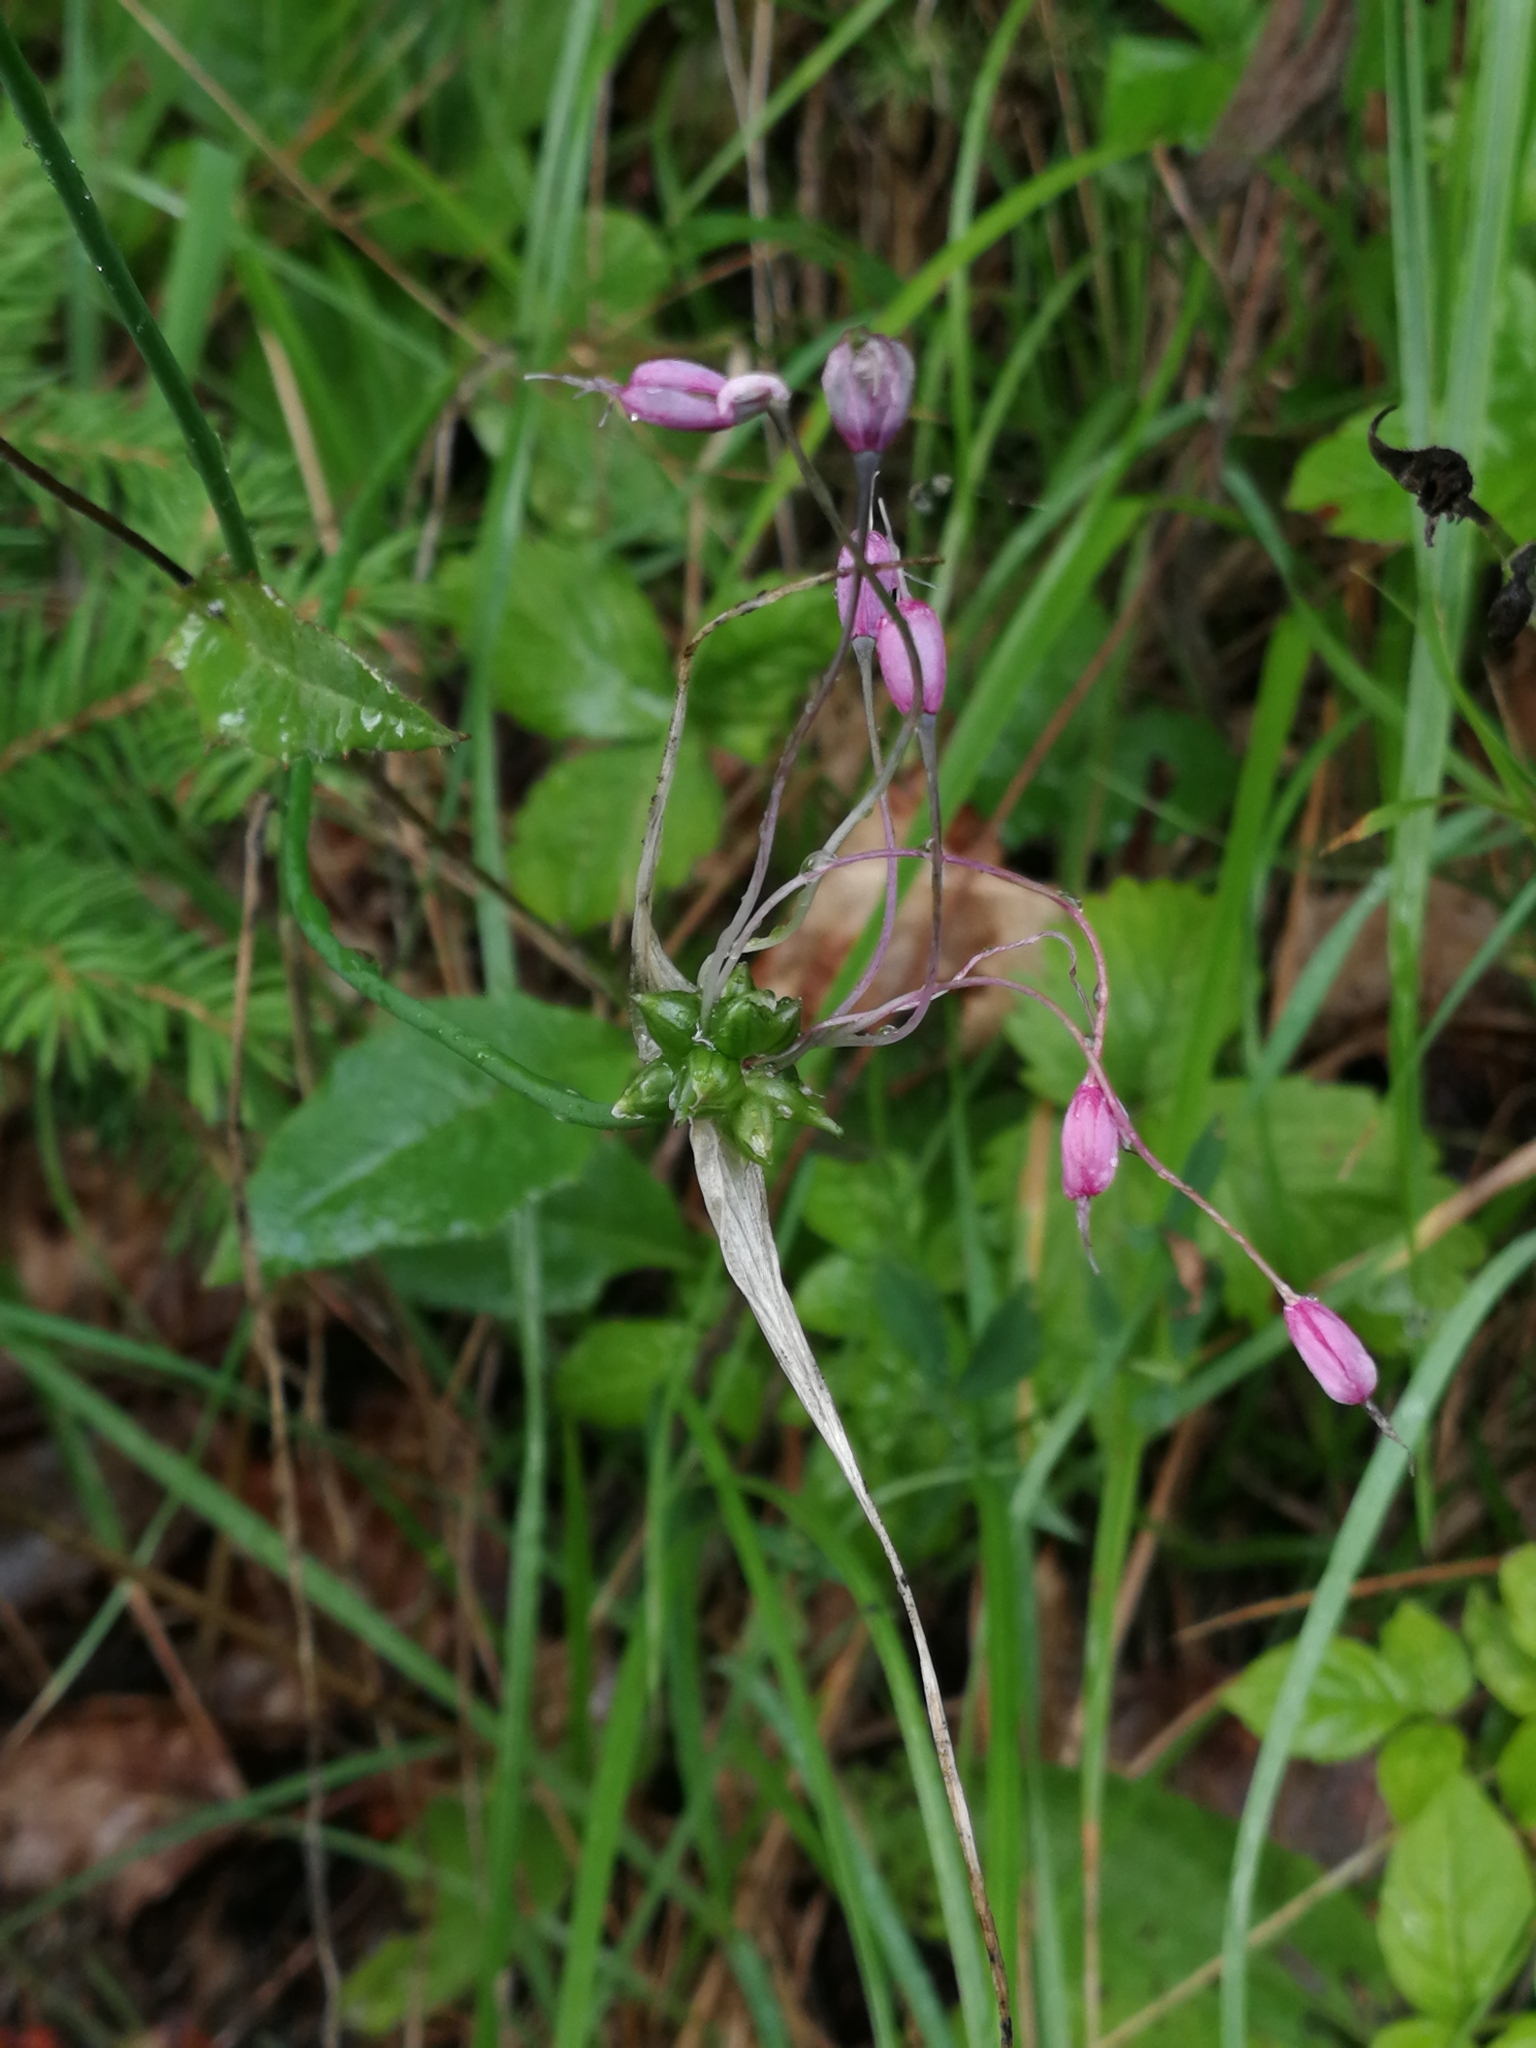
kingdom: Plantae
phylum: Tracheophyta
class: Liliopsida
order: Asparagales
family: Amaryllidaceae
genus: Allium
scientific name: Allium carinatum
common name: Keeled garlic
